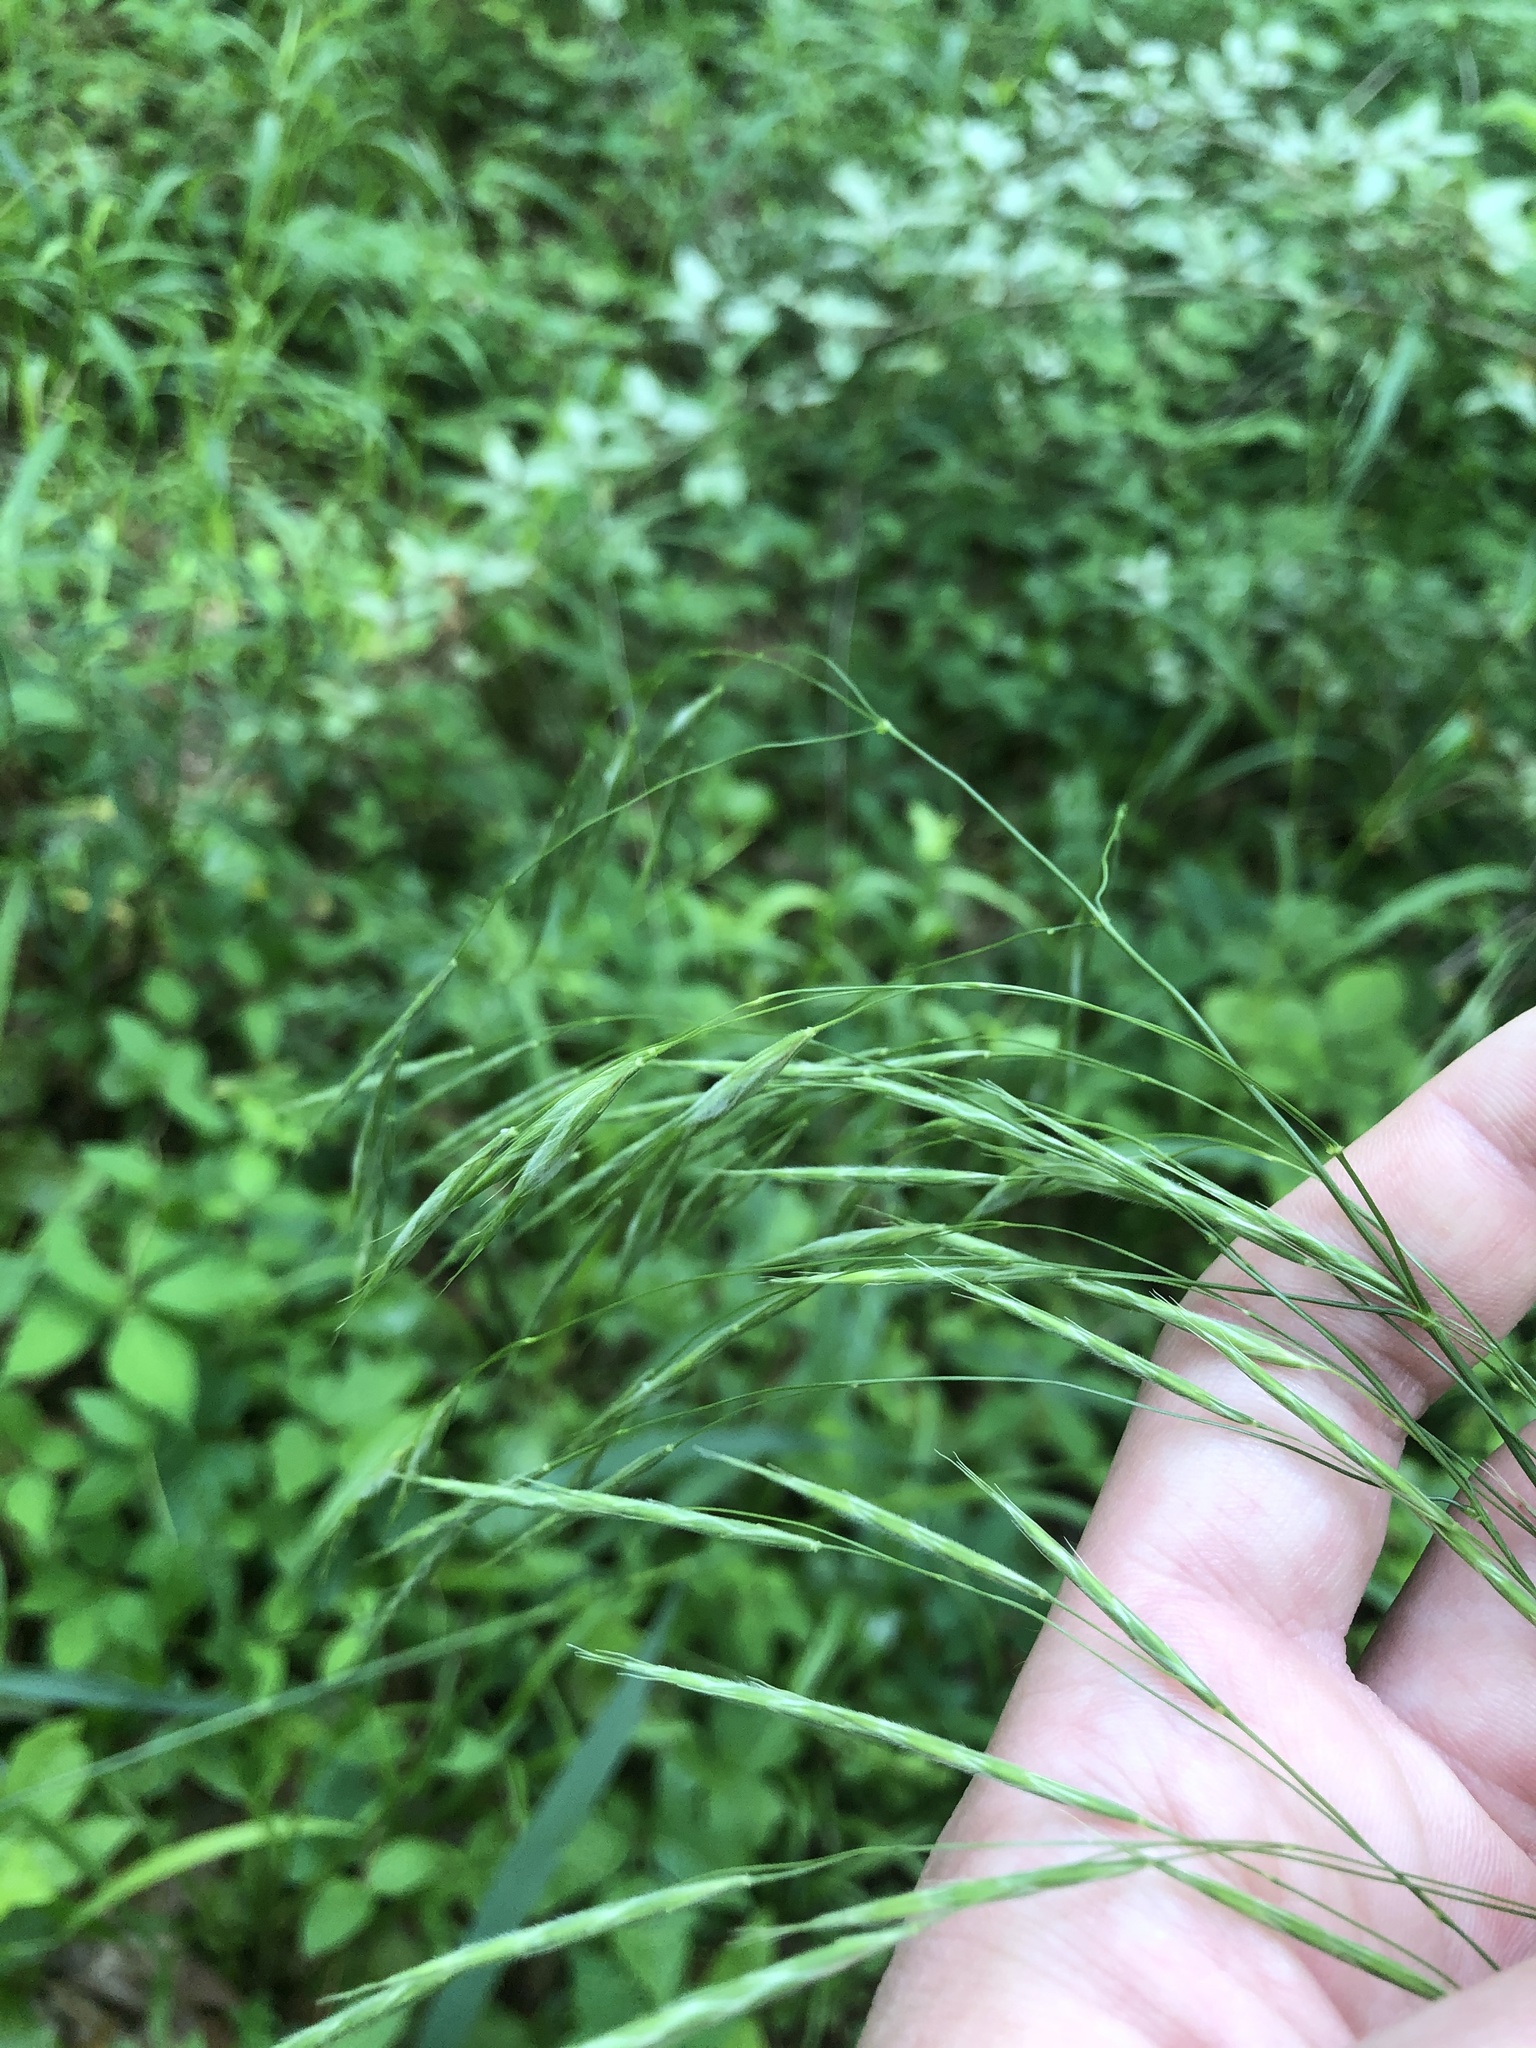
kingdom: Plantae
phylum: Tracheophyta
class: Liliopsida
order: Poales
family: Poaceae
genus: Bromus
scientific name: Bromus pubescens
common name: Hairy wood brome grass
